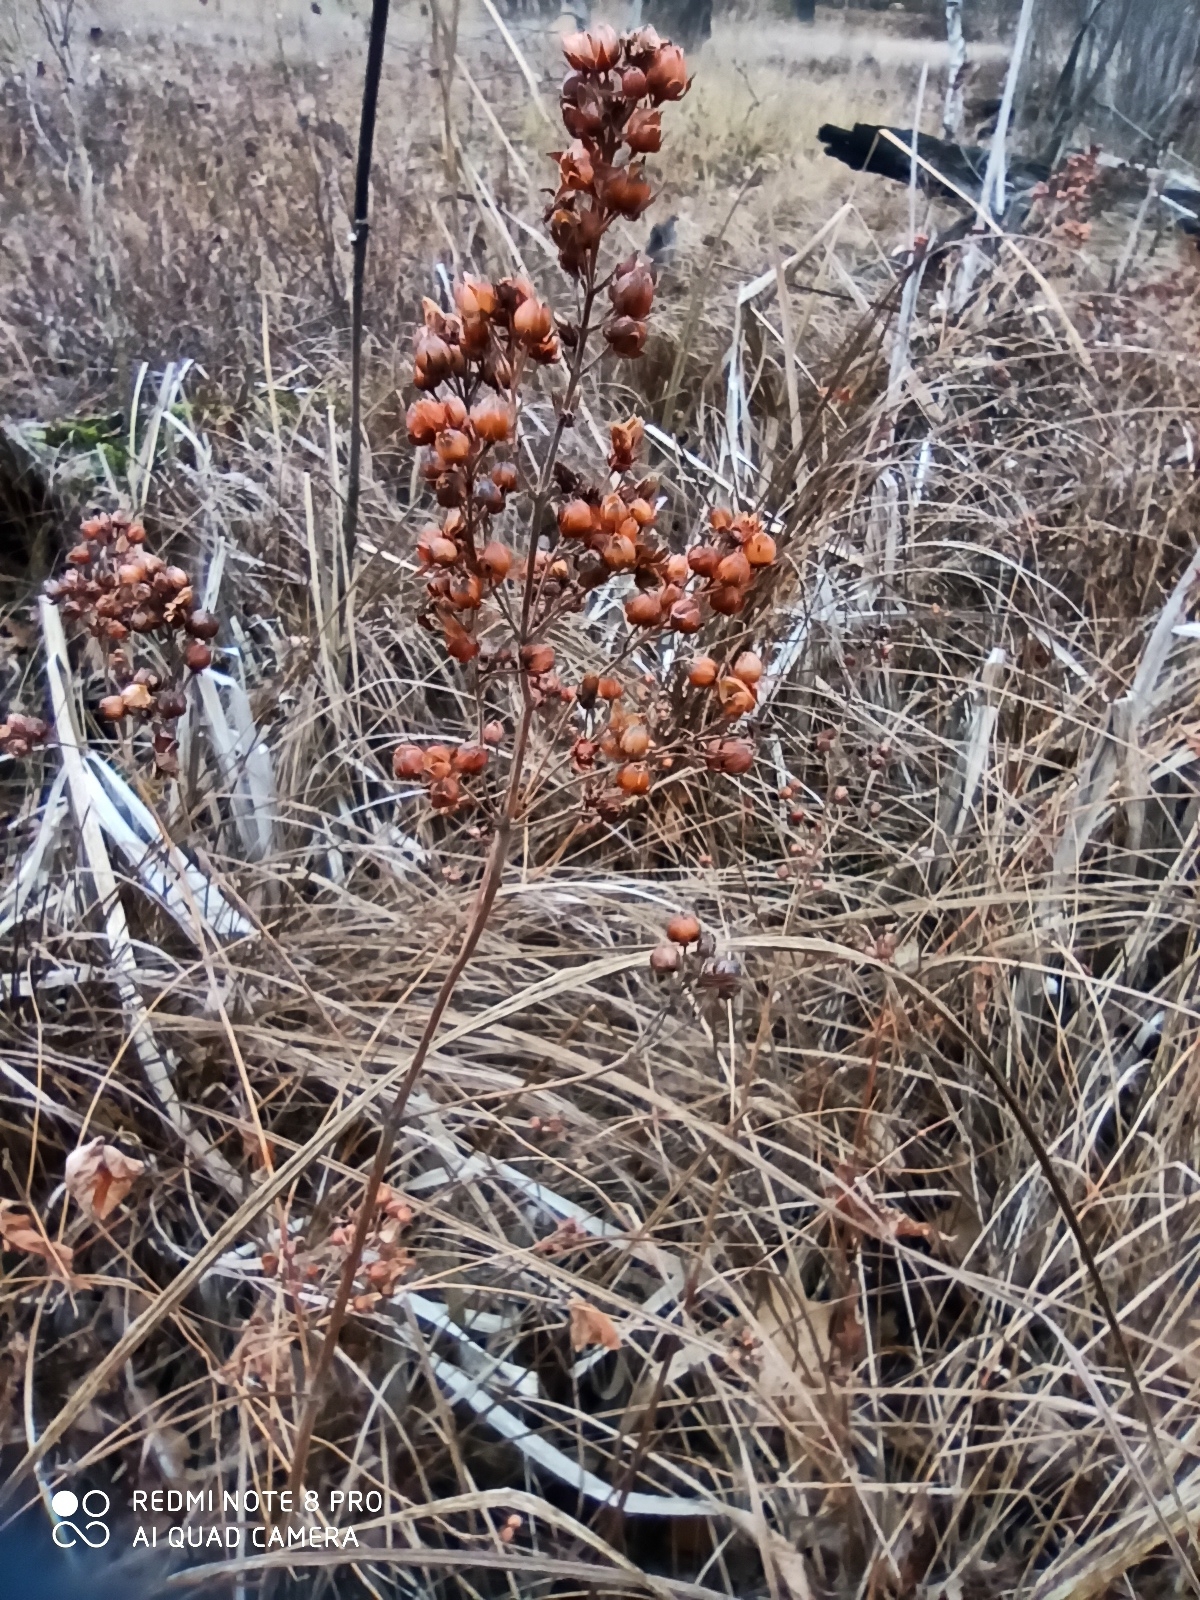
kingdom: Plantae
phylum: Tracheophyta
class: Magnoliopsida
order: Ericales
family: Primulaceae
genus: Lysimachia
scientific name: Lysimachia vulgaris
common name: Yellow loosestrife
